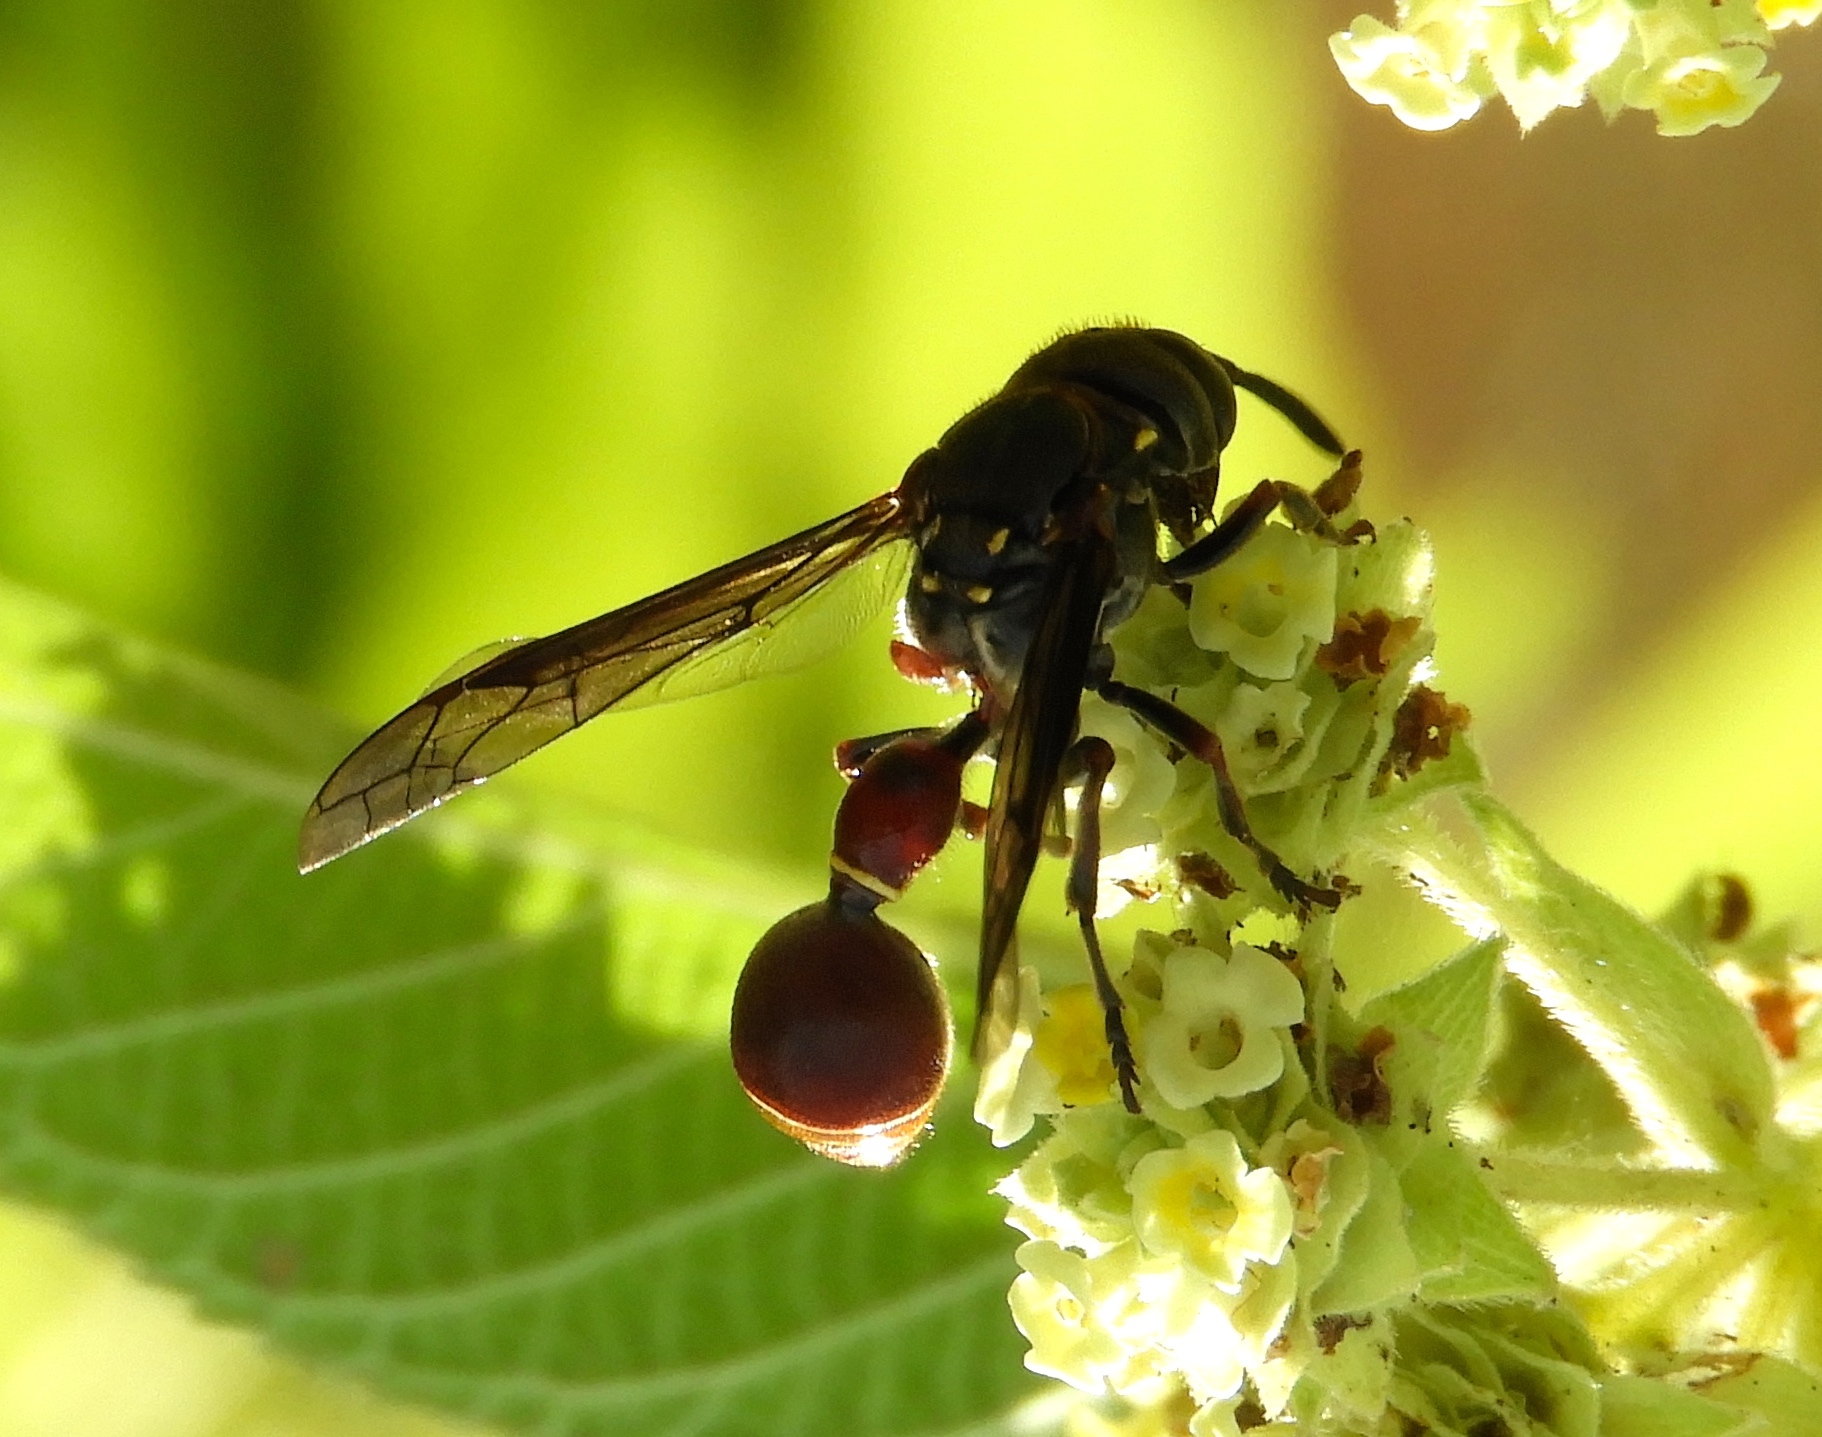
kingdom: Animalia
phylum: Arthropoda
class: Insecta
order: Hymenoptera
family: Eumenidae
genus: Zethus
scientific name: Zethus analis
